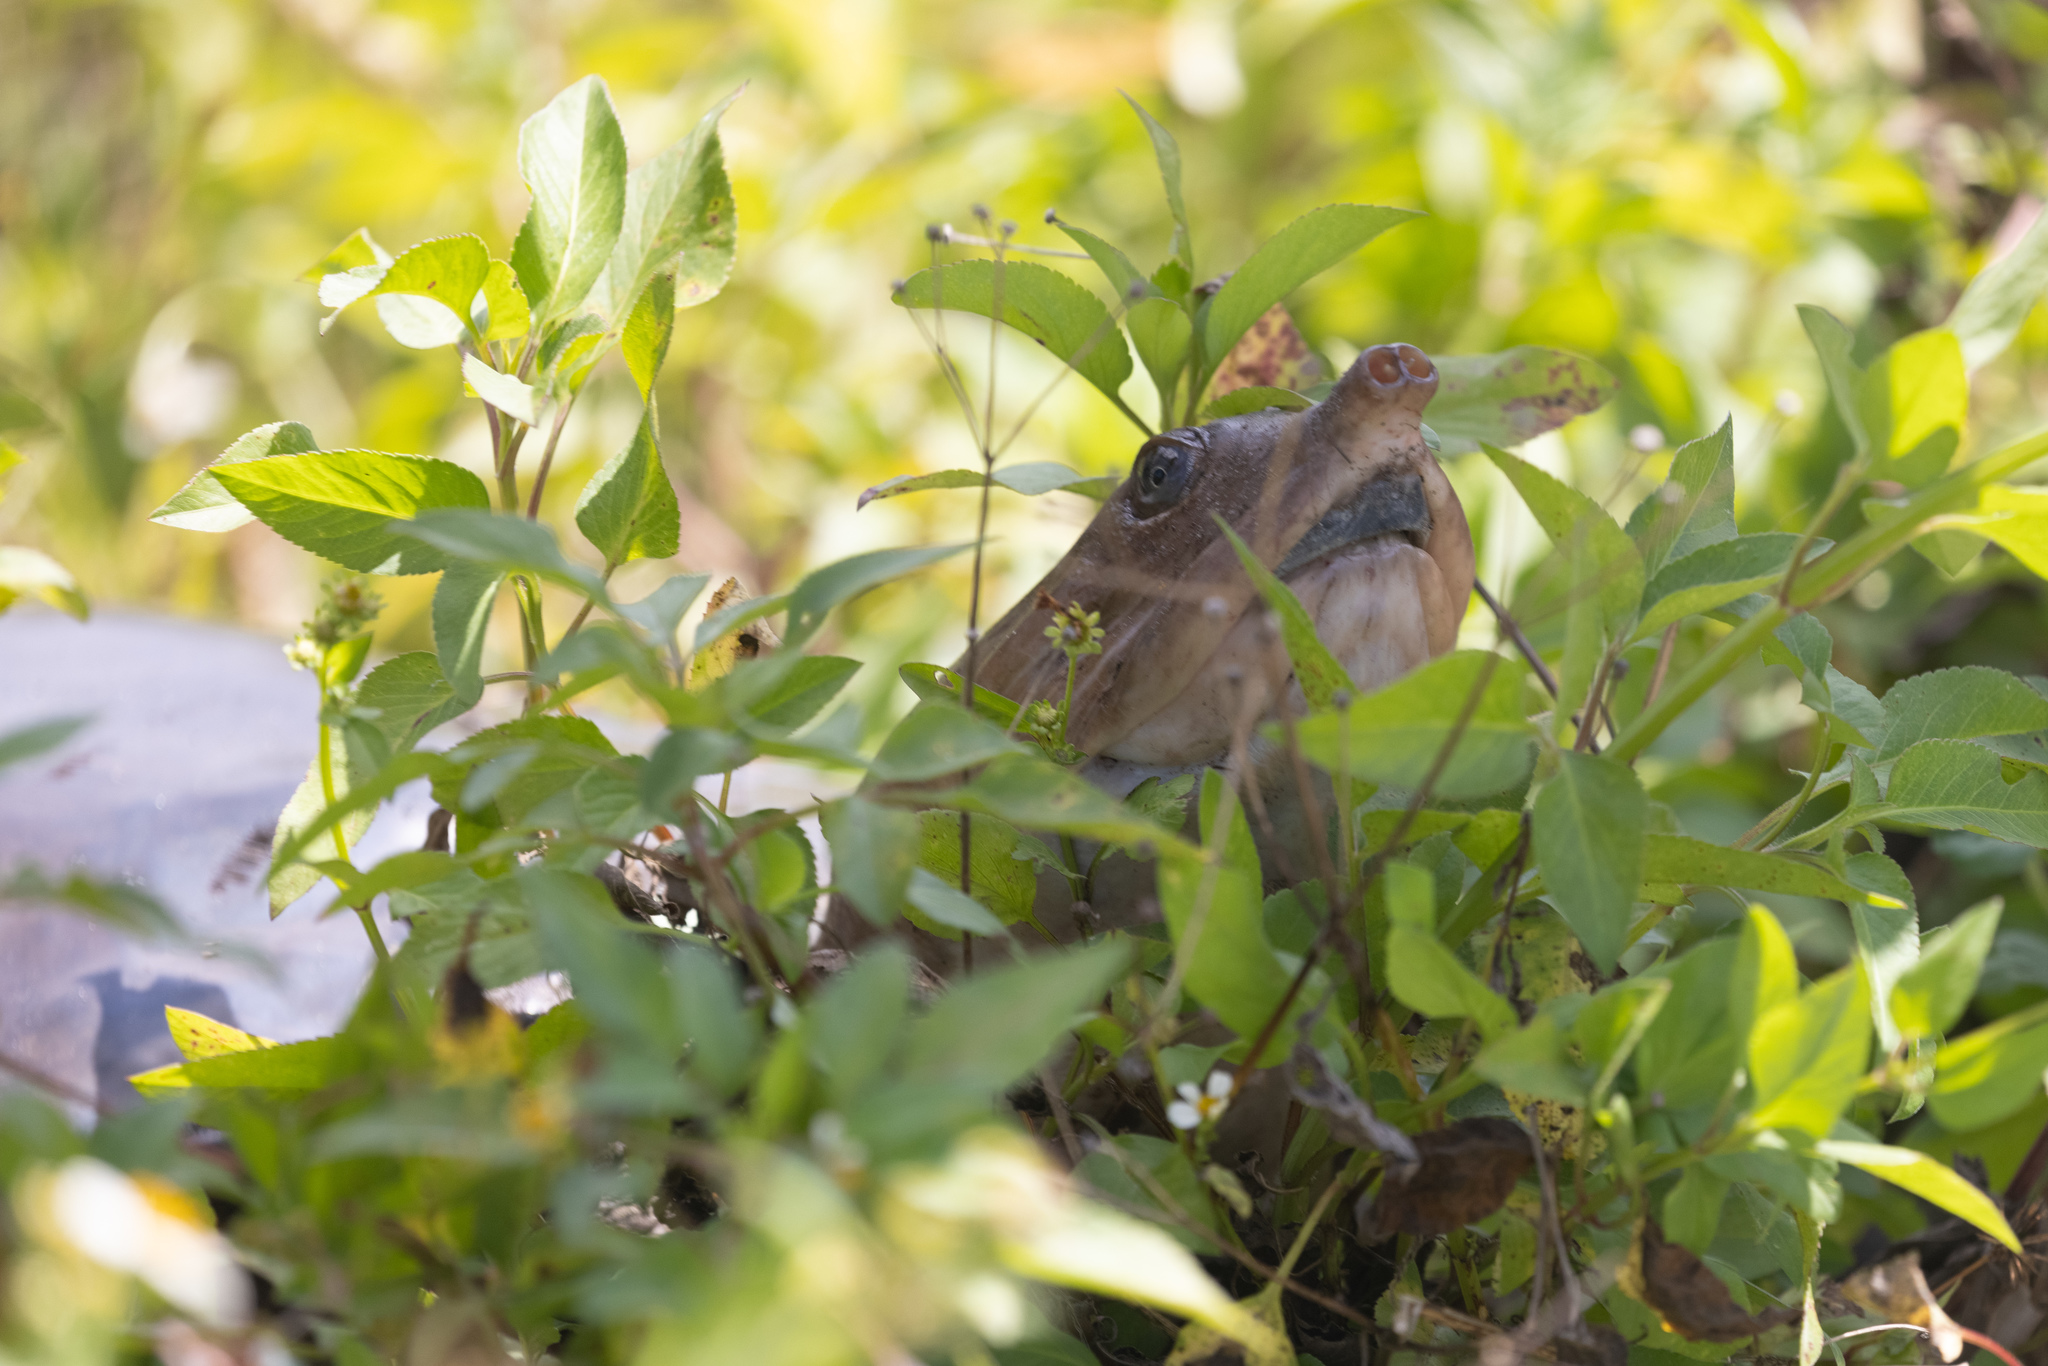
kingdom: Animalia
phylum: Chordata
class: Testudines
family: Trionychidae
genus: Apalone
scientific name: Apalone ferox
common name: Florida softshell turtle
